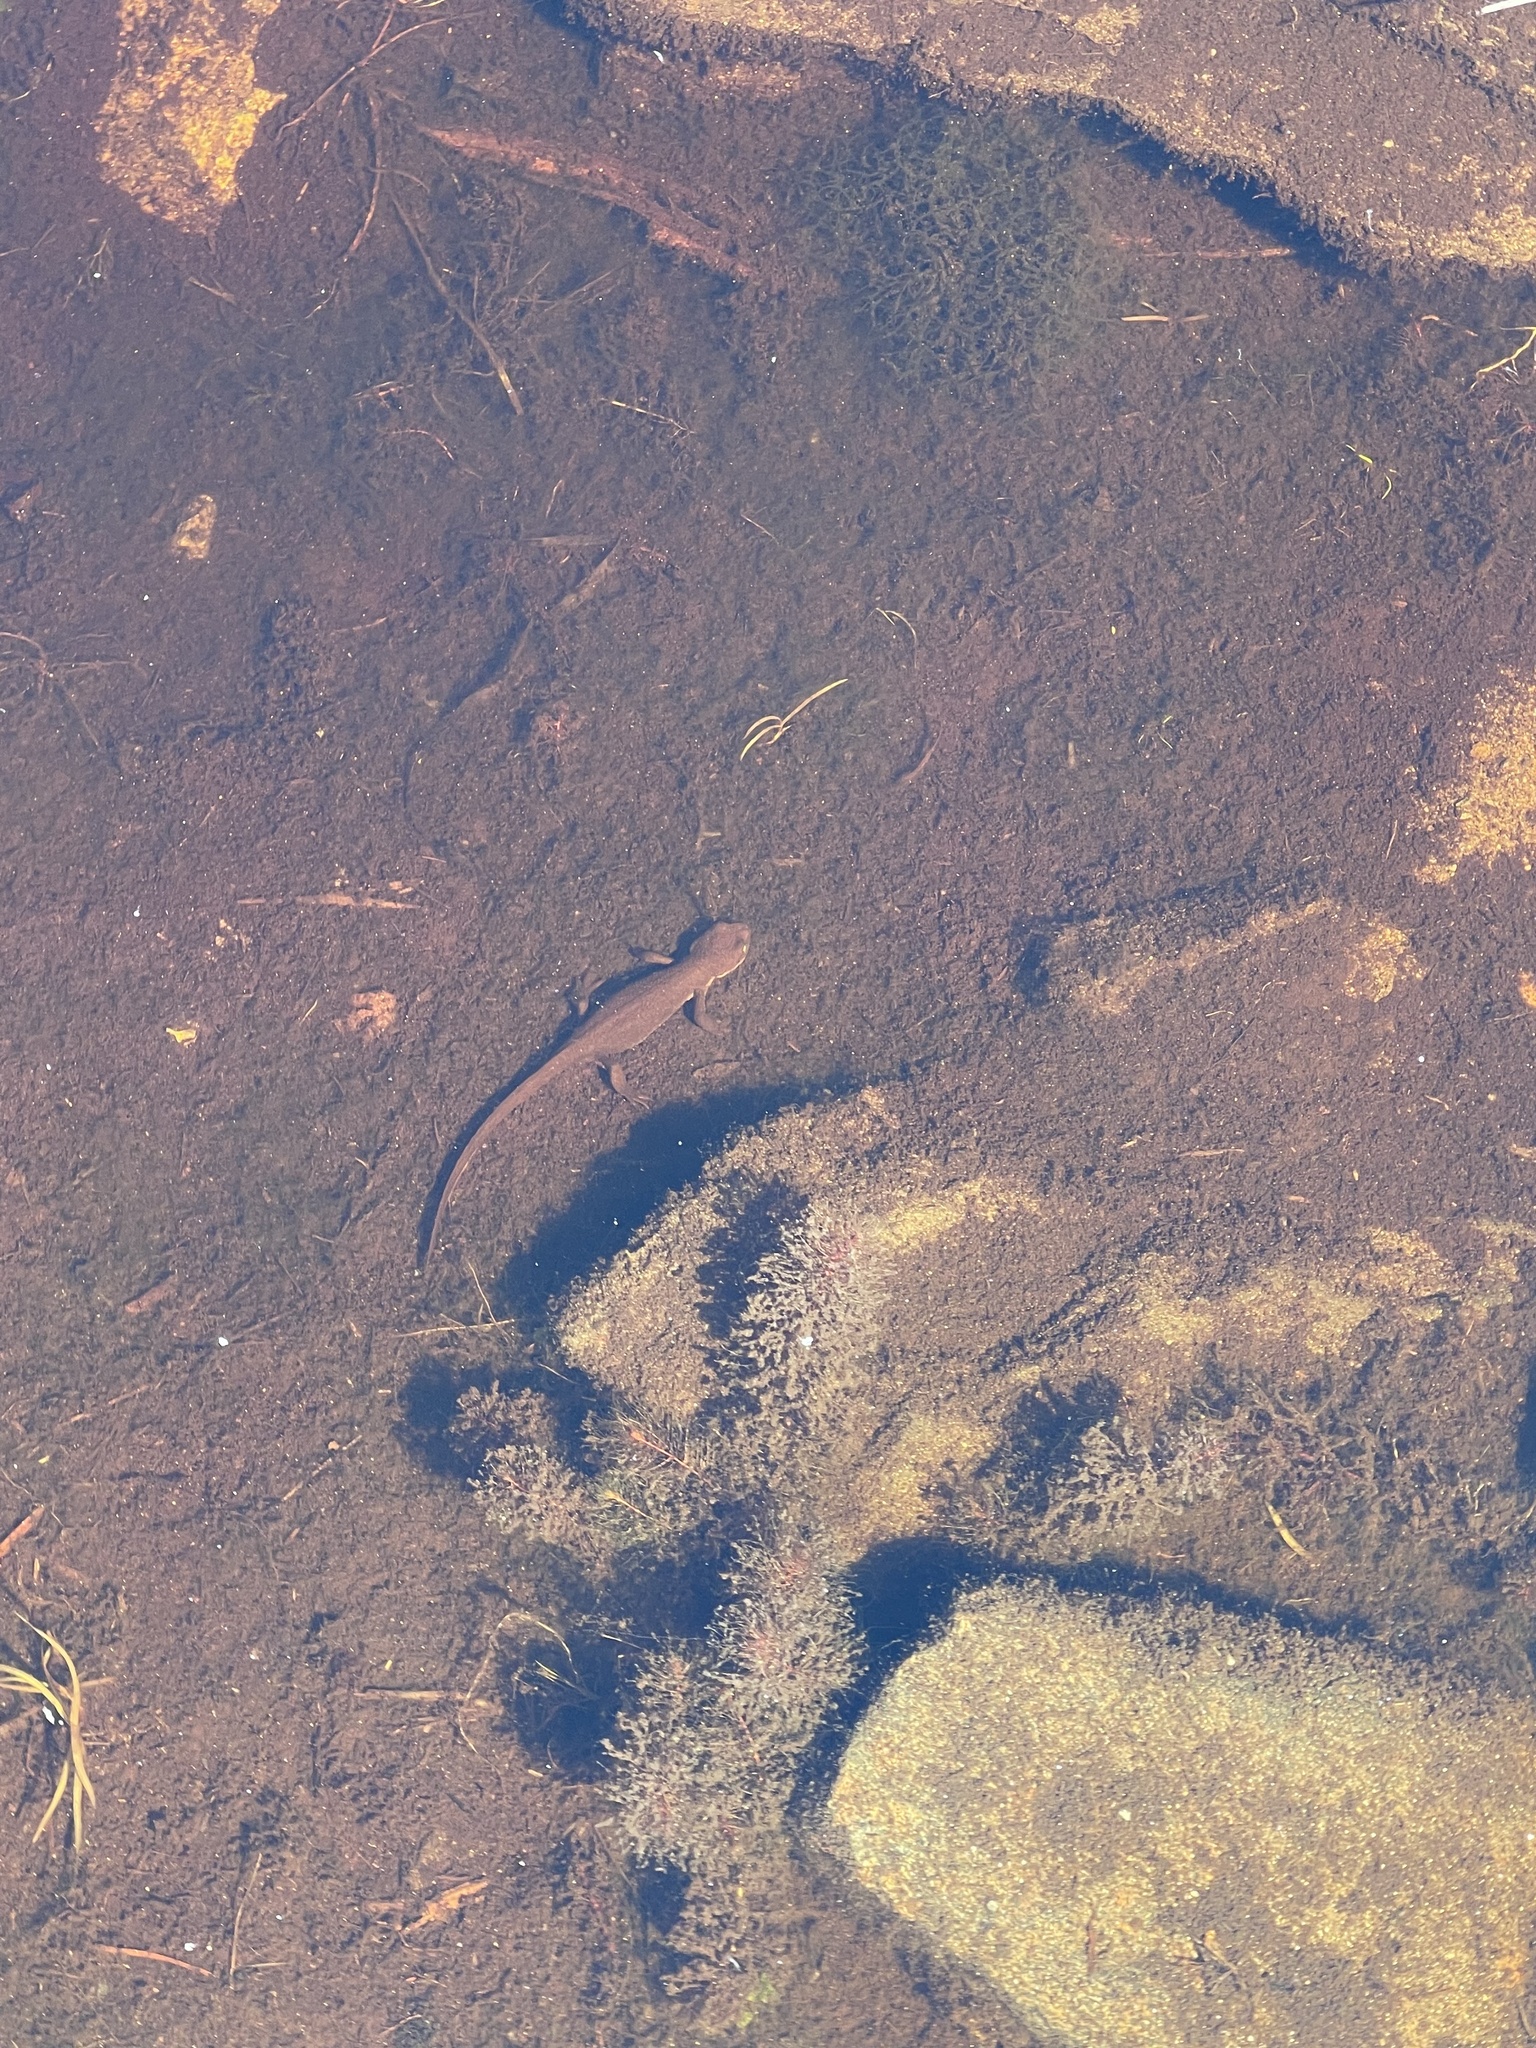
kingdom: Animalia
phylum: Chordata
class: Amphibia
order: Caudata
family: Salamandridae
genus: Taricha
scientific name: Taricha granulosa
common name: Roughskin newt
